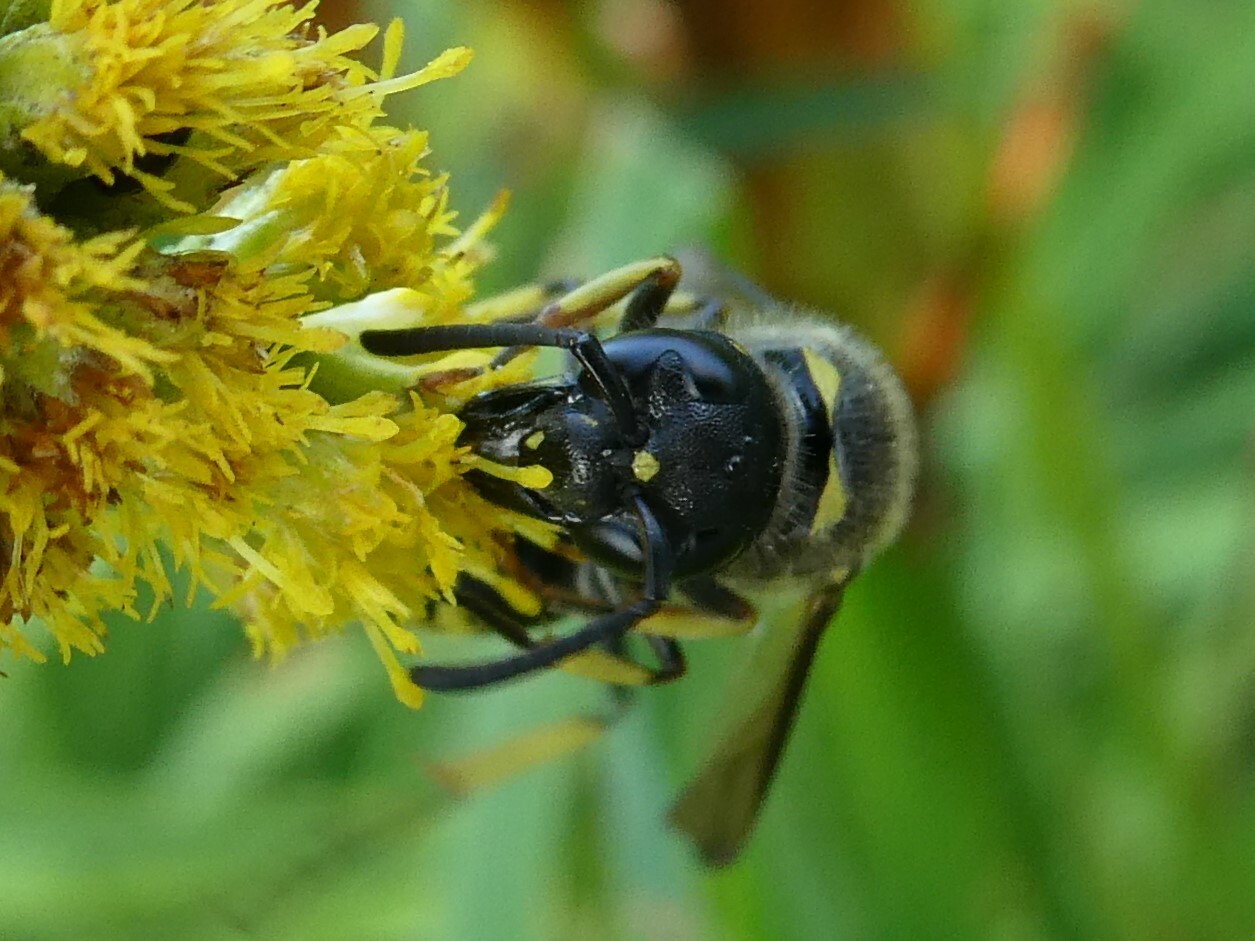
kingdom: Animalia
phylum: Arthropoda
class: Insecta
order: Hymenoptera
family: Vespidae
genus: Ancistrocerus
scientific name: Ancistrocerus
